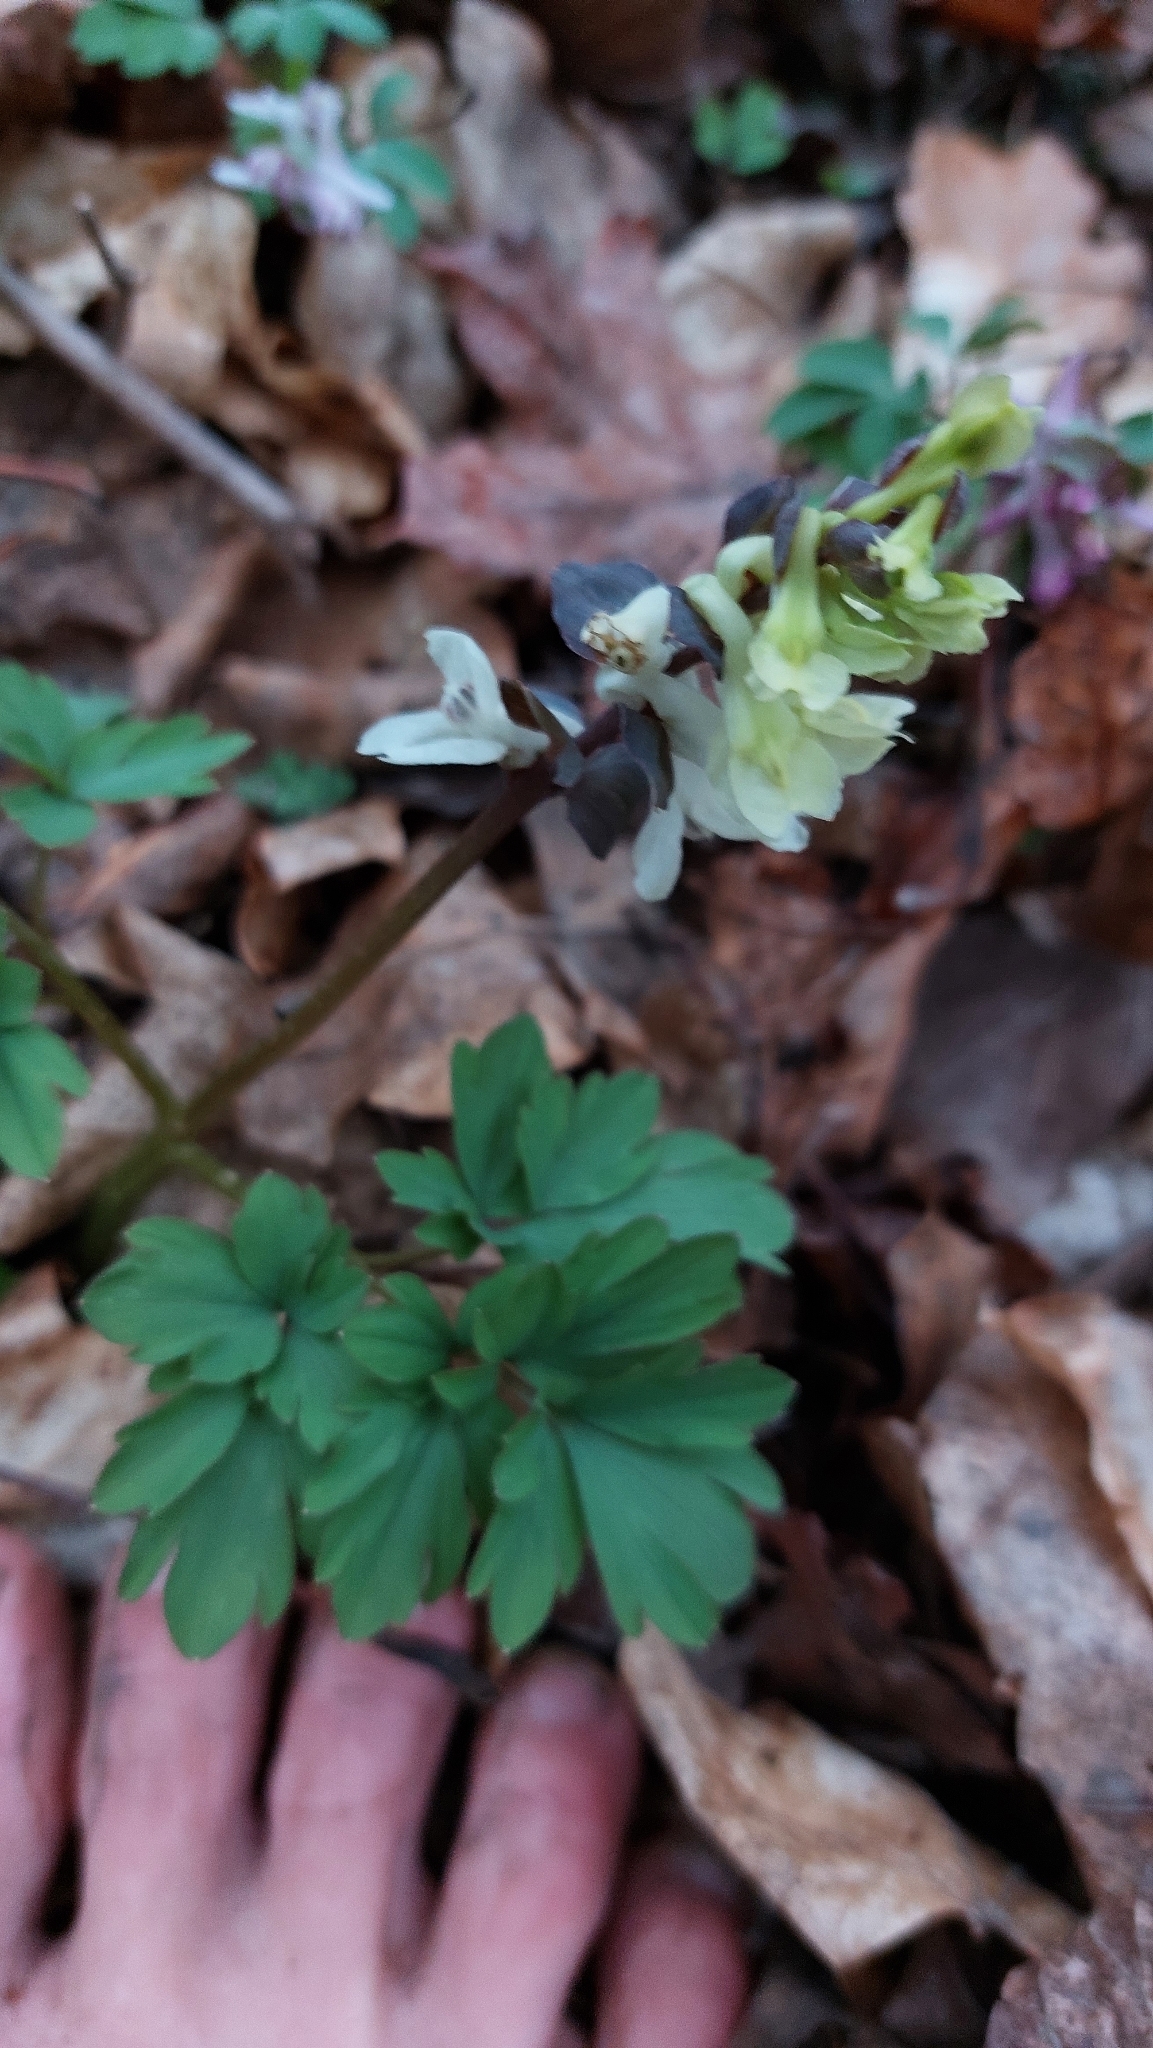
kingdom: Plantae
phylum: Tracheophyta
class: Magnoliopsida
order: Ranunculales
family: Papaveraceae
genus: Corydalis
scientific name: Corydalis cava
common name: Hollowroot
